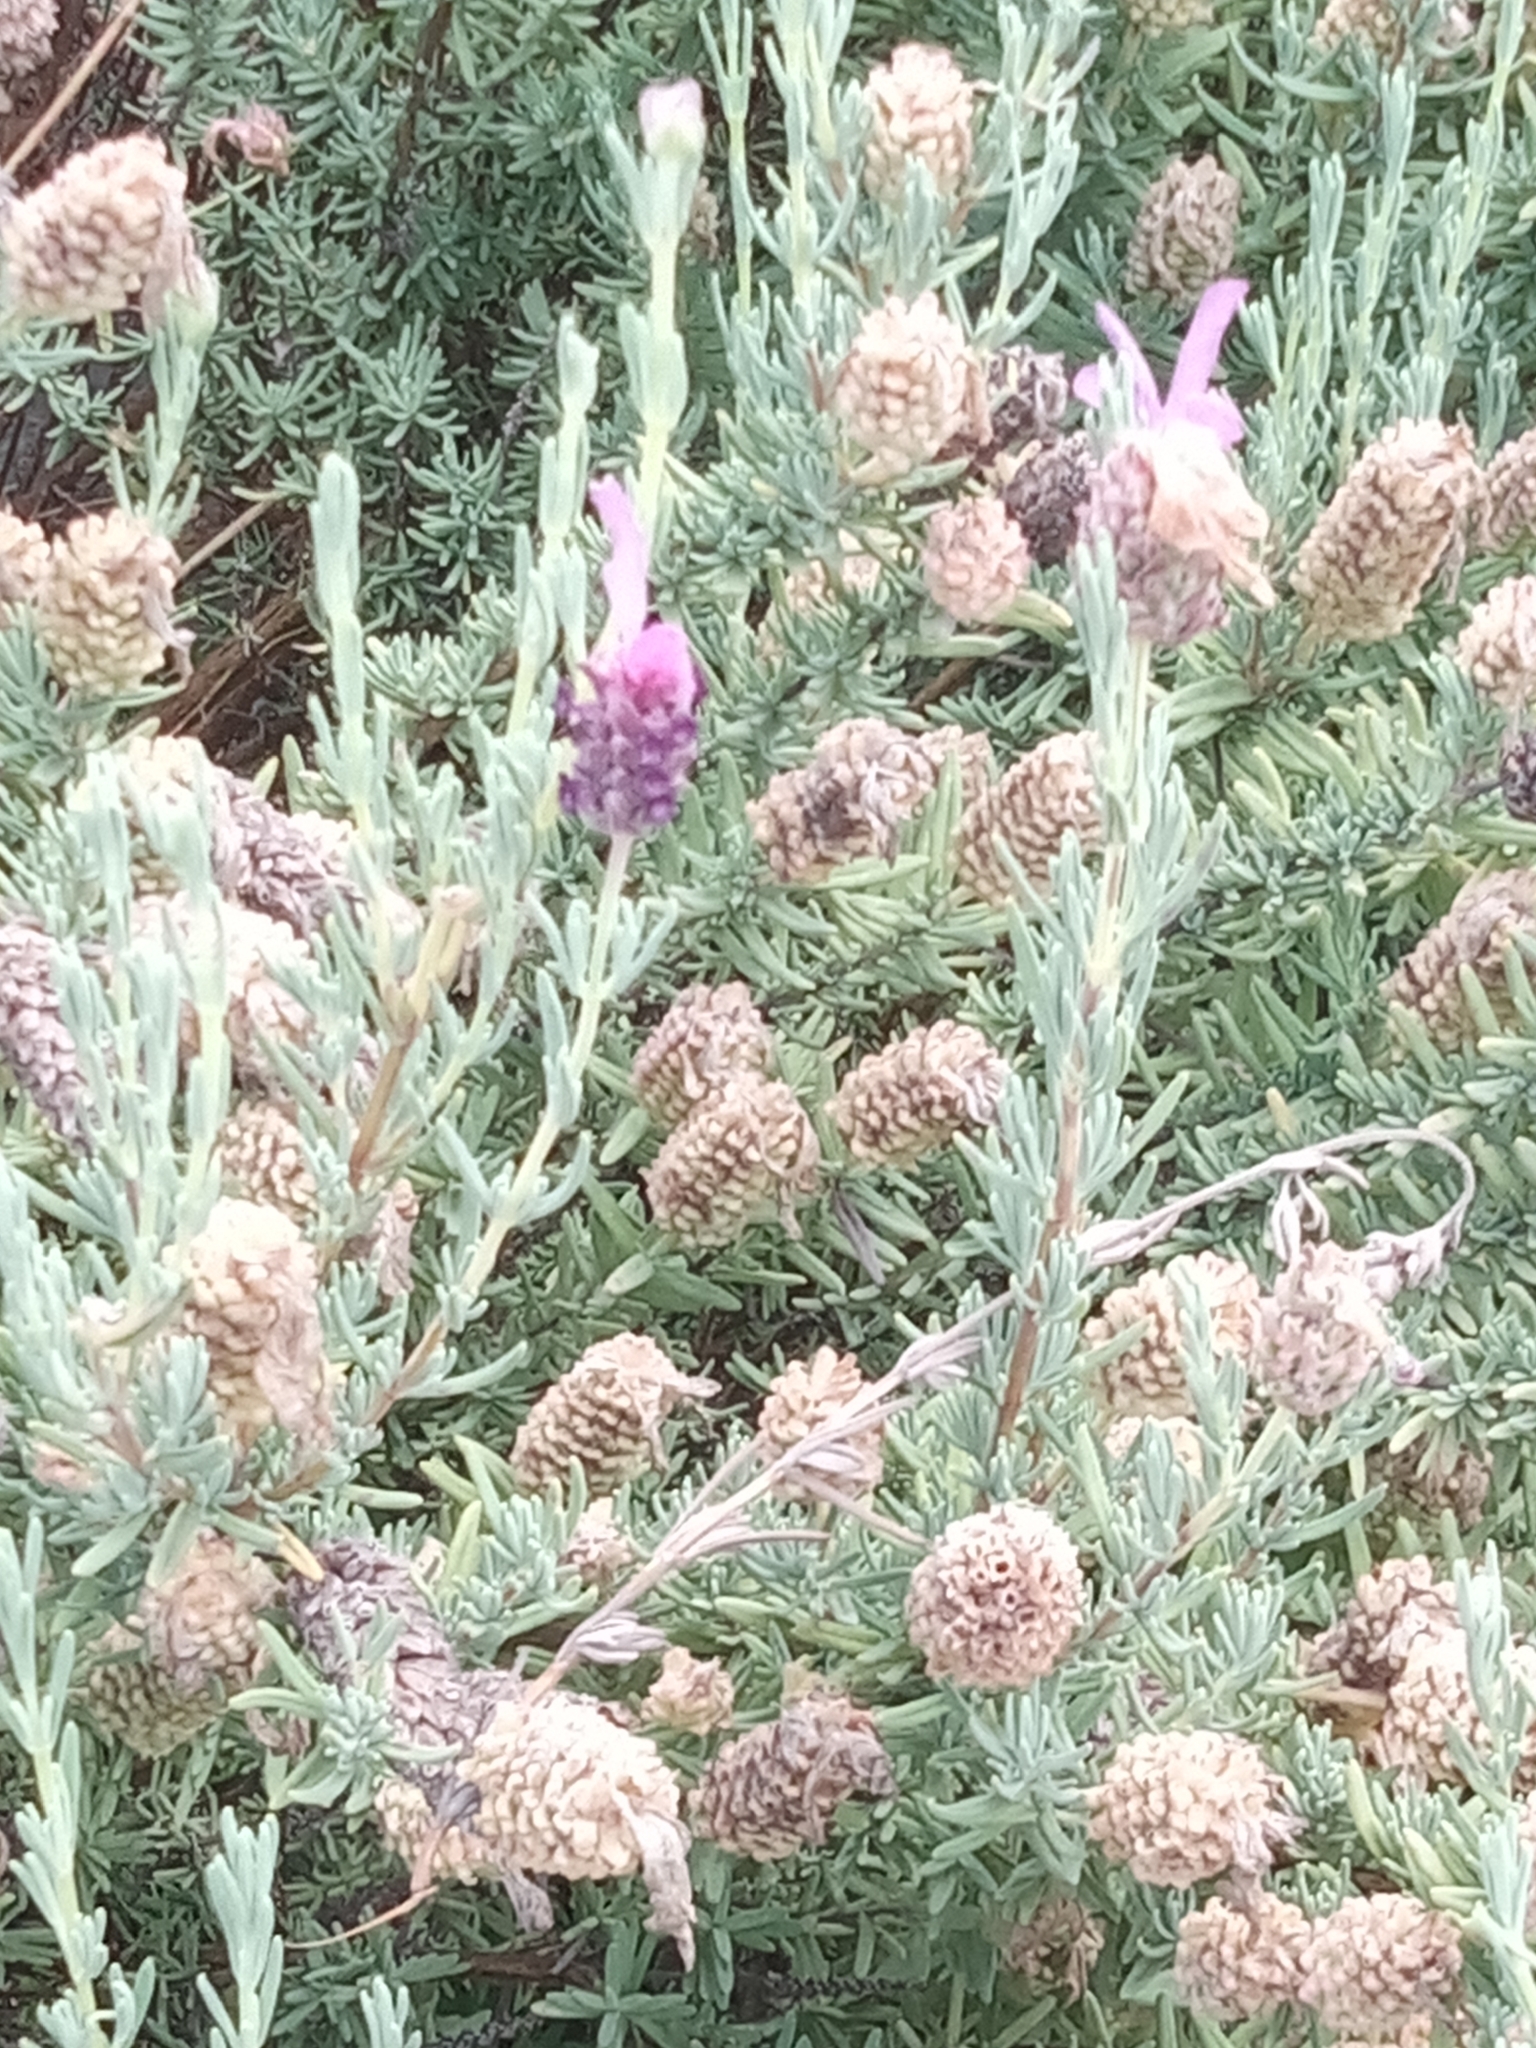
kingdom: Animalia
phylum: Arthropoda
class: Insecta
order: Hymenoptera
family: Apidae
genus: Apis
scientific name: Apis mellifera
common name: Honey bee
